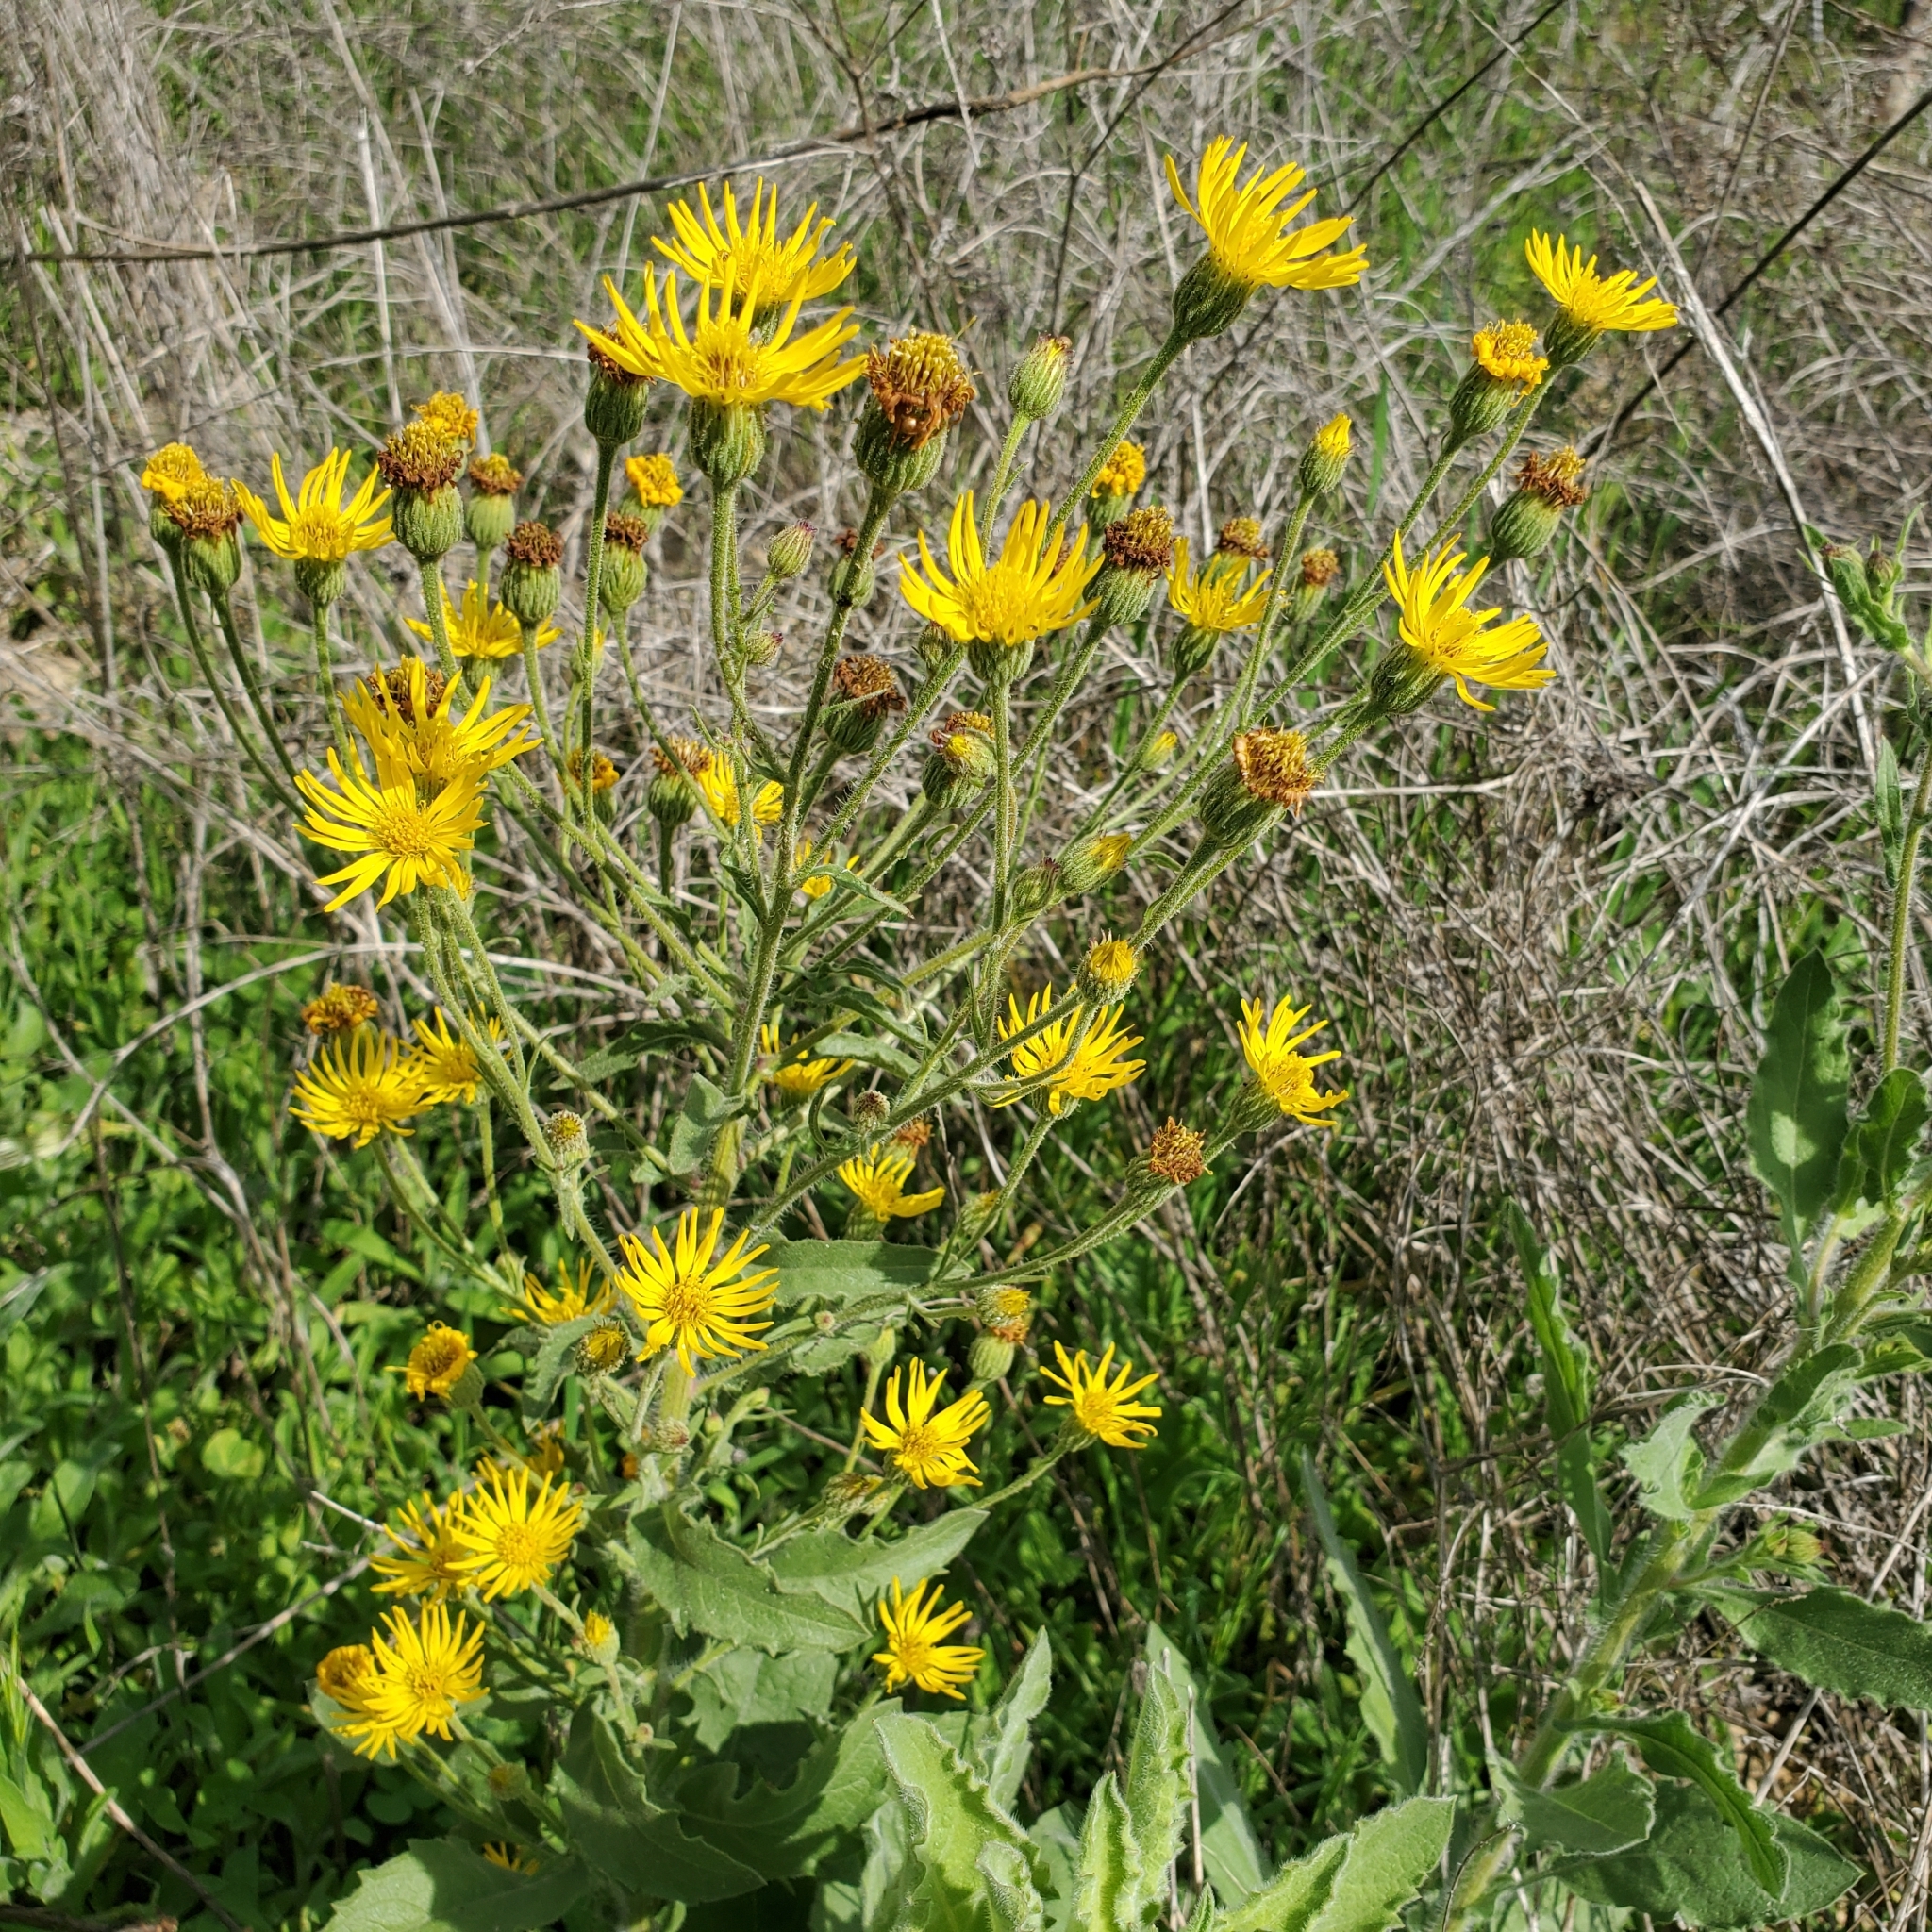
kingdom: Plantae
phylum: Tracheophyta
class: Magnoliopsida
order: Asterales
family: Asteraceae
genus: Heterotheca
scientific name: Heterotheca grandiflora
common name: Telegraphweed
